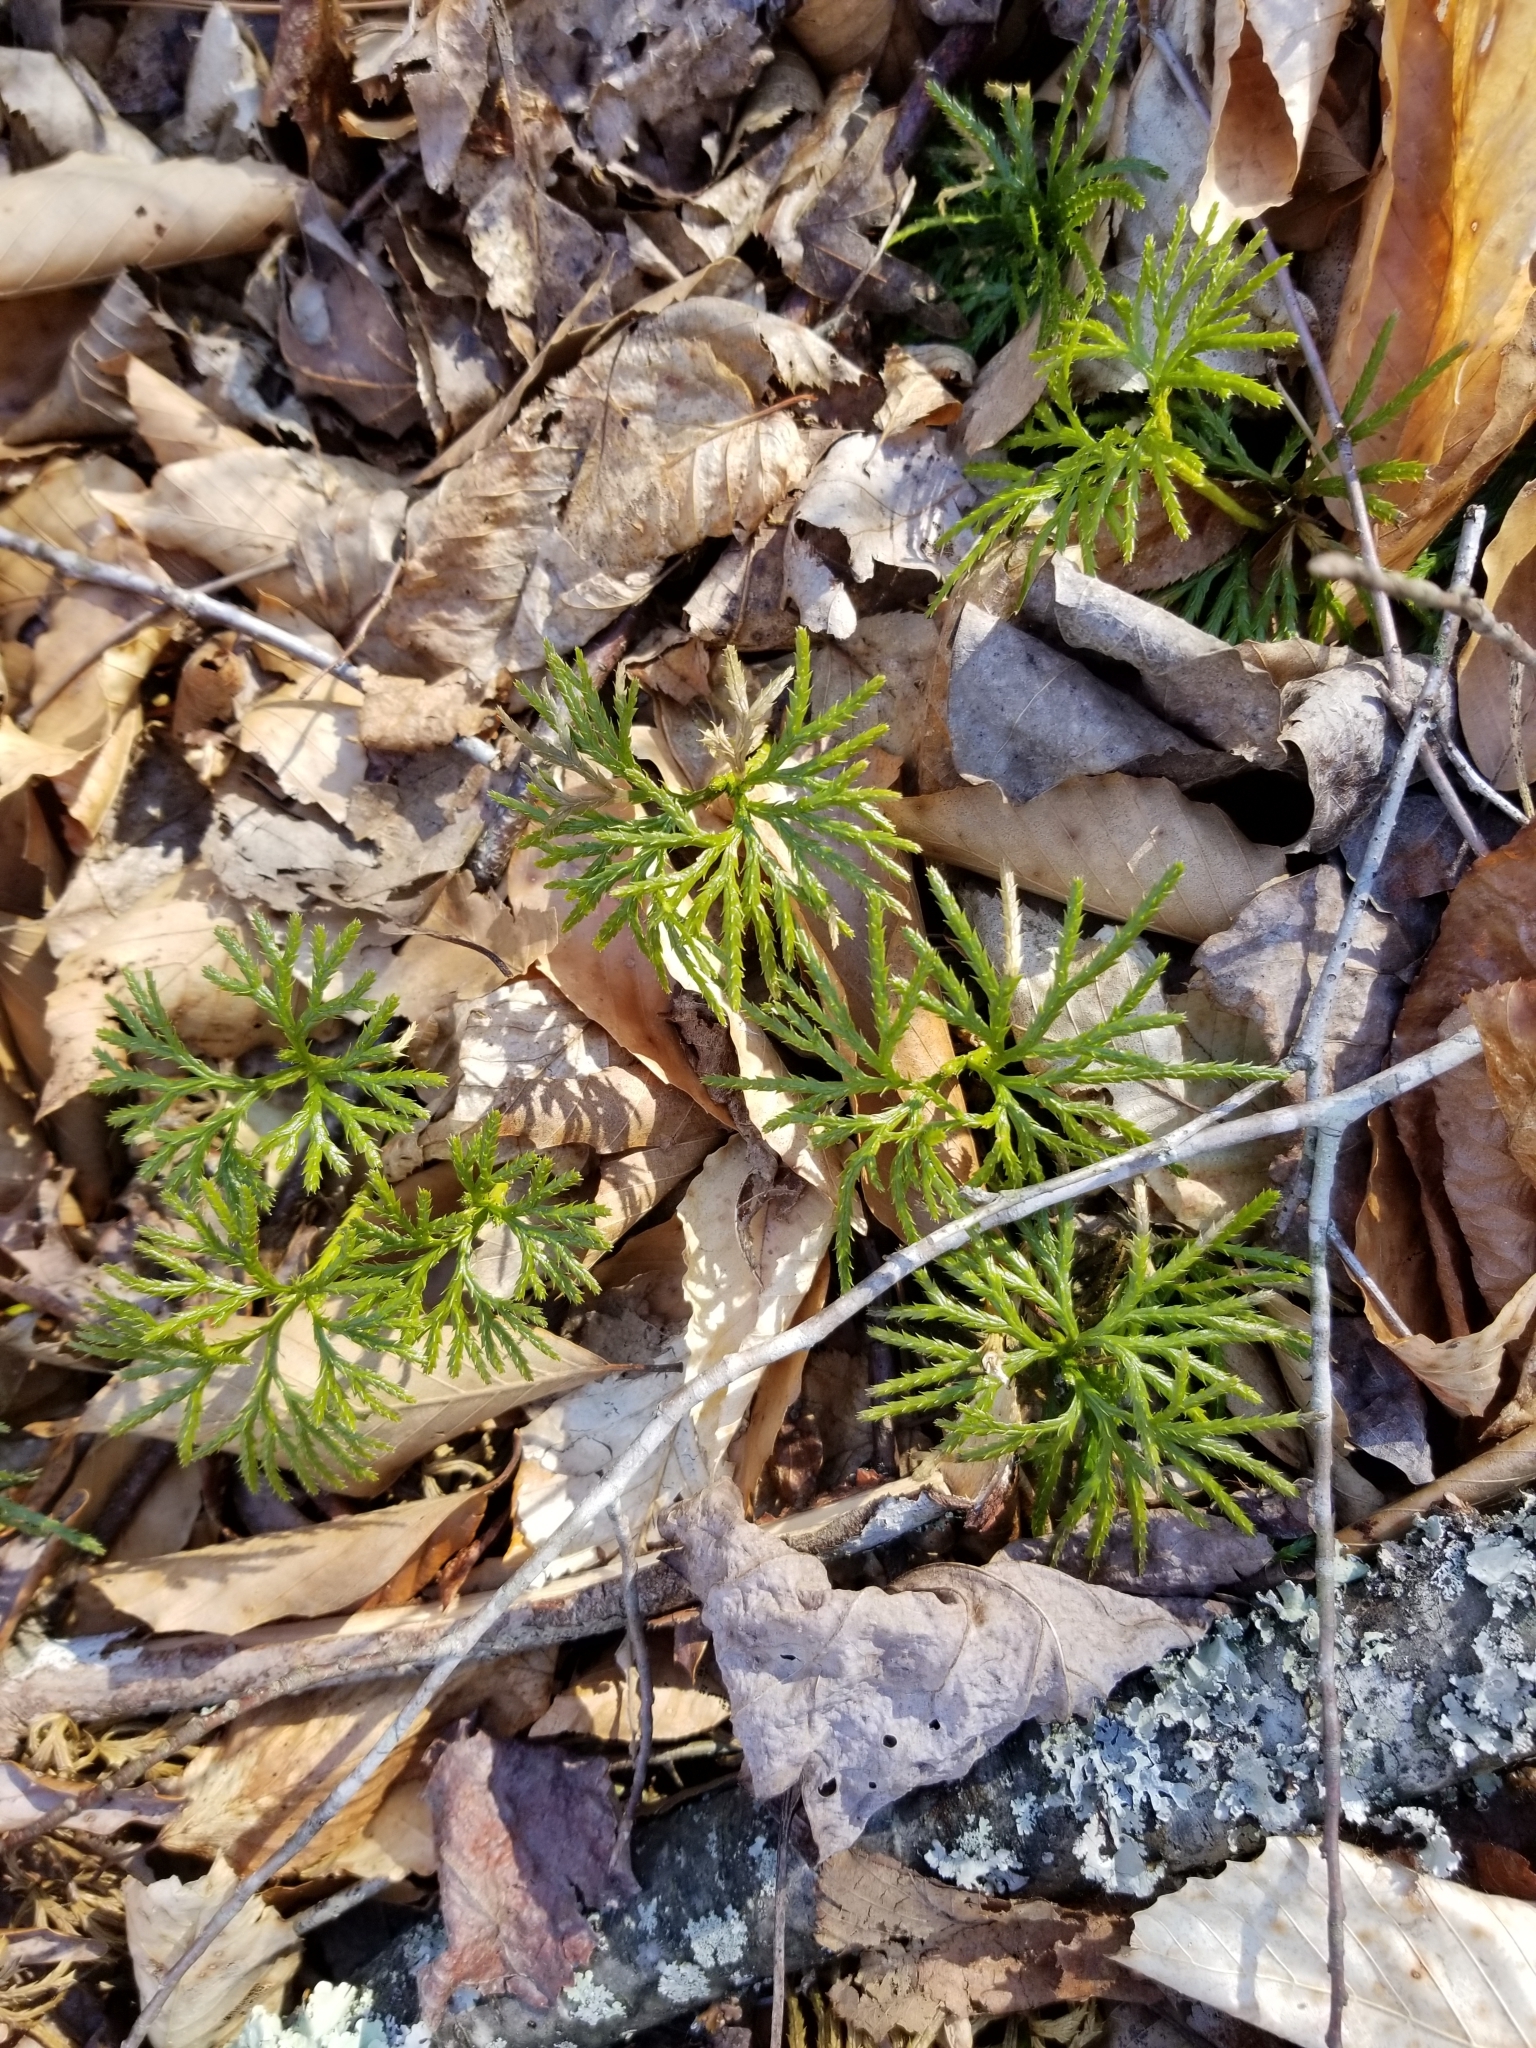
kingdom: Plantae
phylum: Tracheophyta
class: Lycopodiopsida
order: Lycopodiales
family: Lycopodiaceae
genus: Diphasiastrum
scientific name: Diphasiastrum digitatum
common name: Southern running-pine
